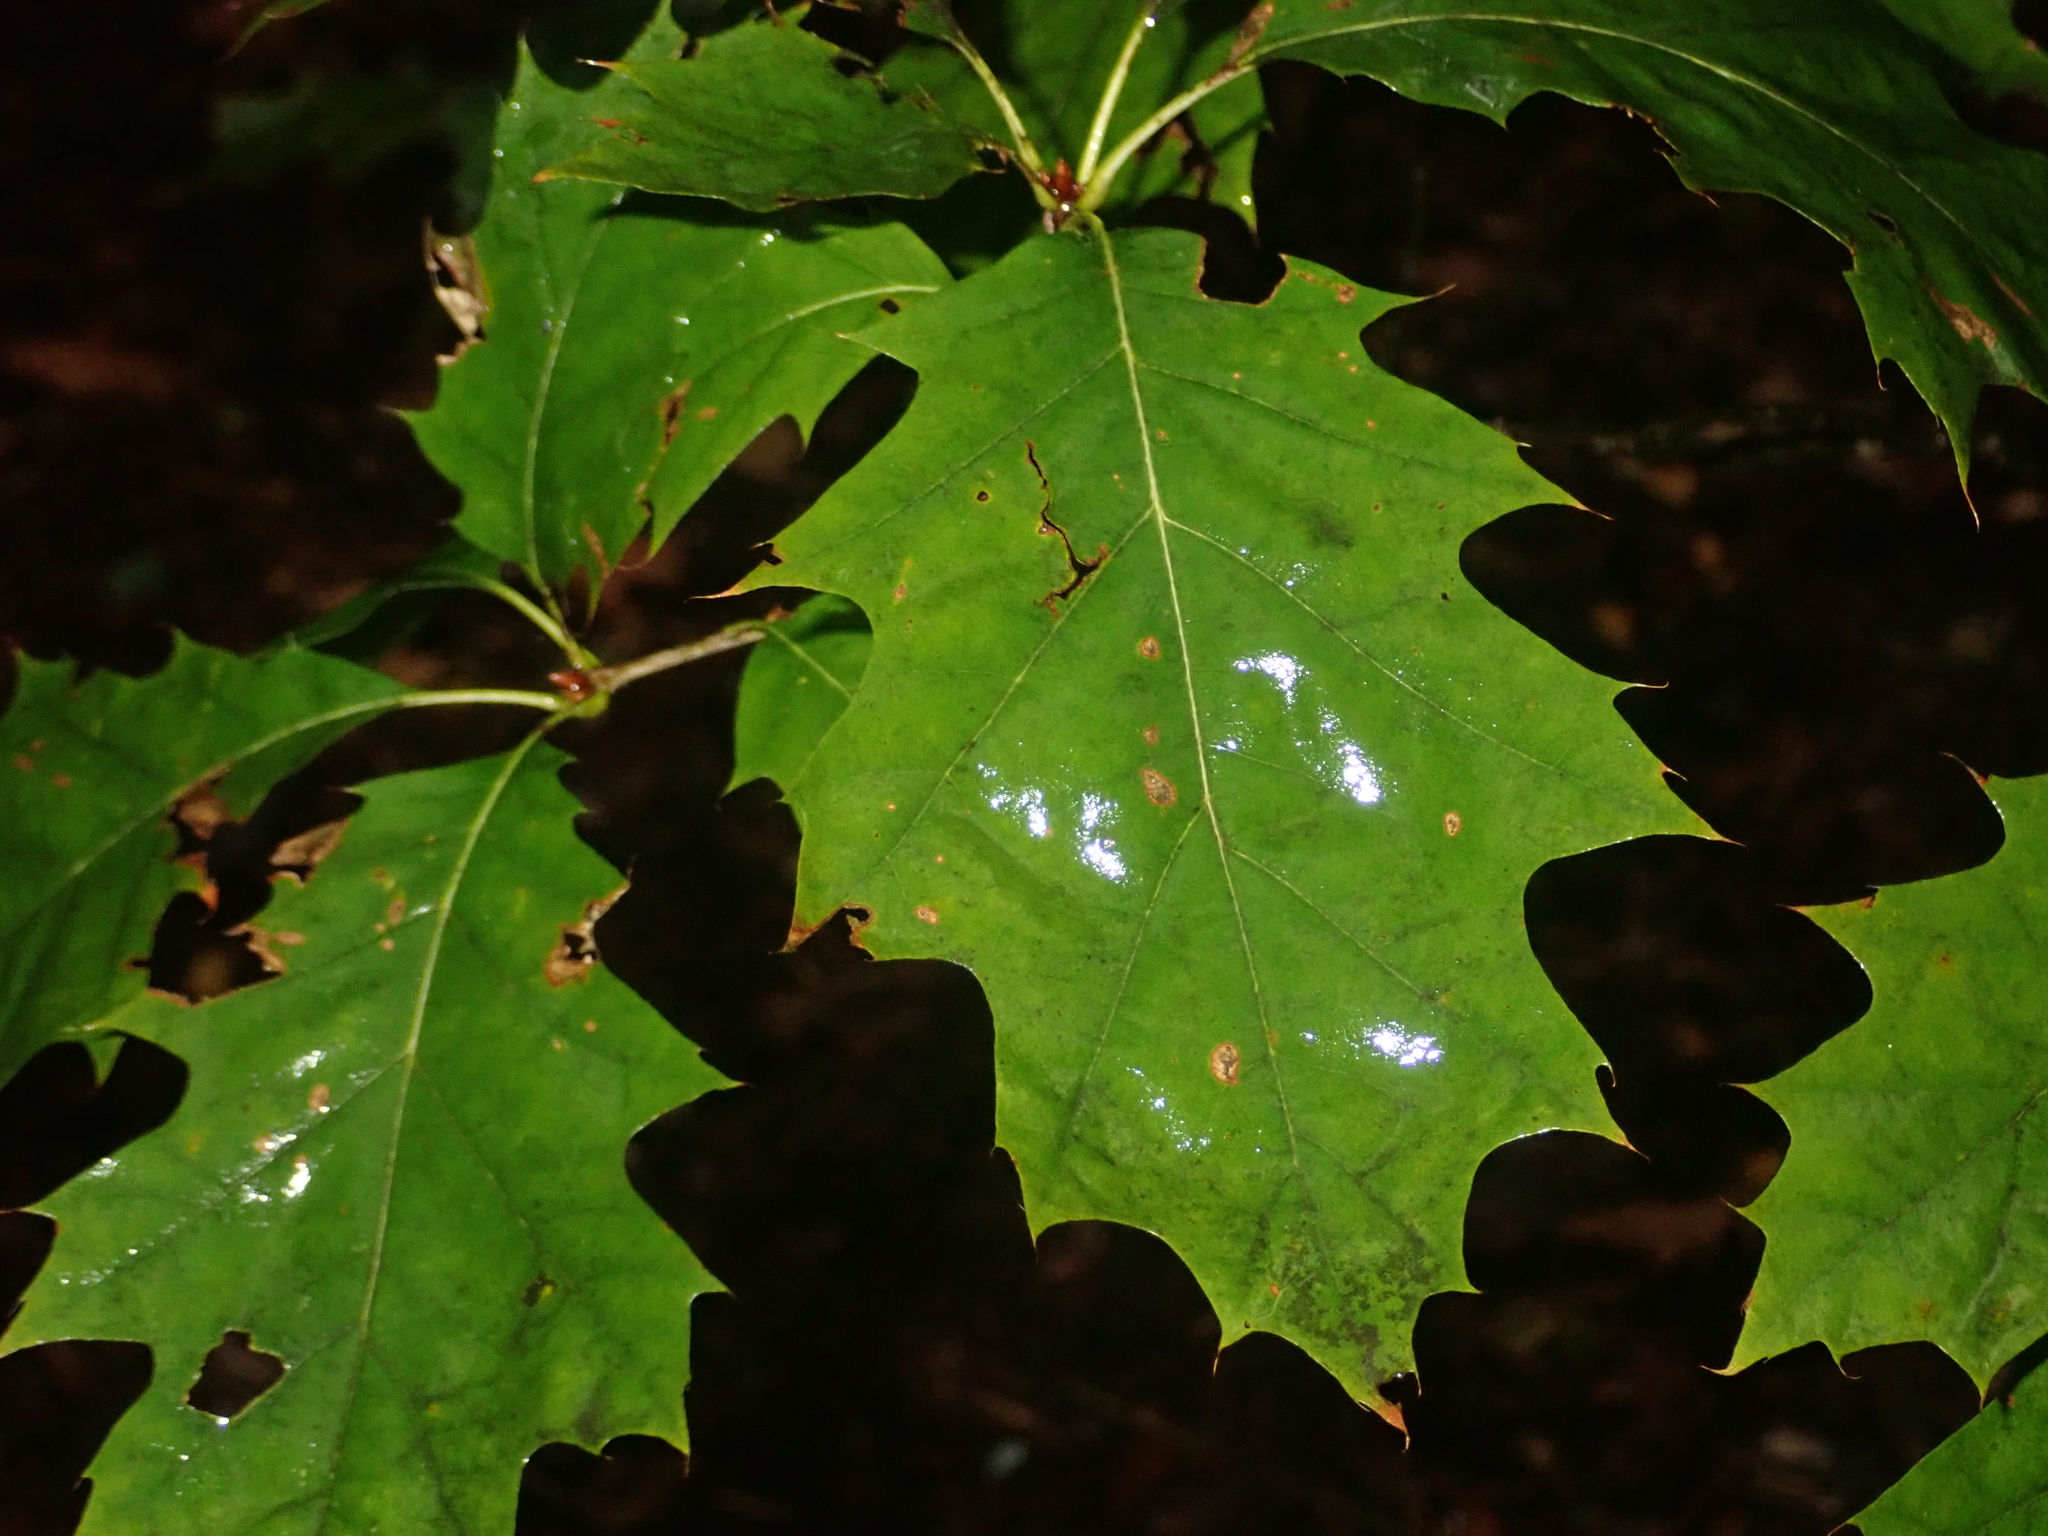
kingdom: Plantae
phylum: Tracheophyta
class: Magnoliopsida
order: Fagales
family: Fagaceae
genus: Quercus
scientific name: Quercus rubra
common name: Red oak
